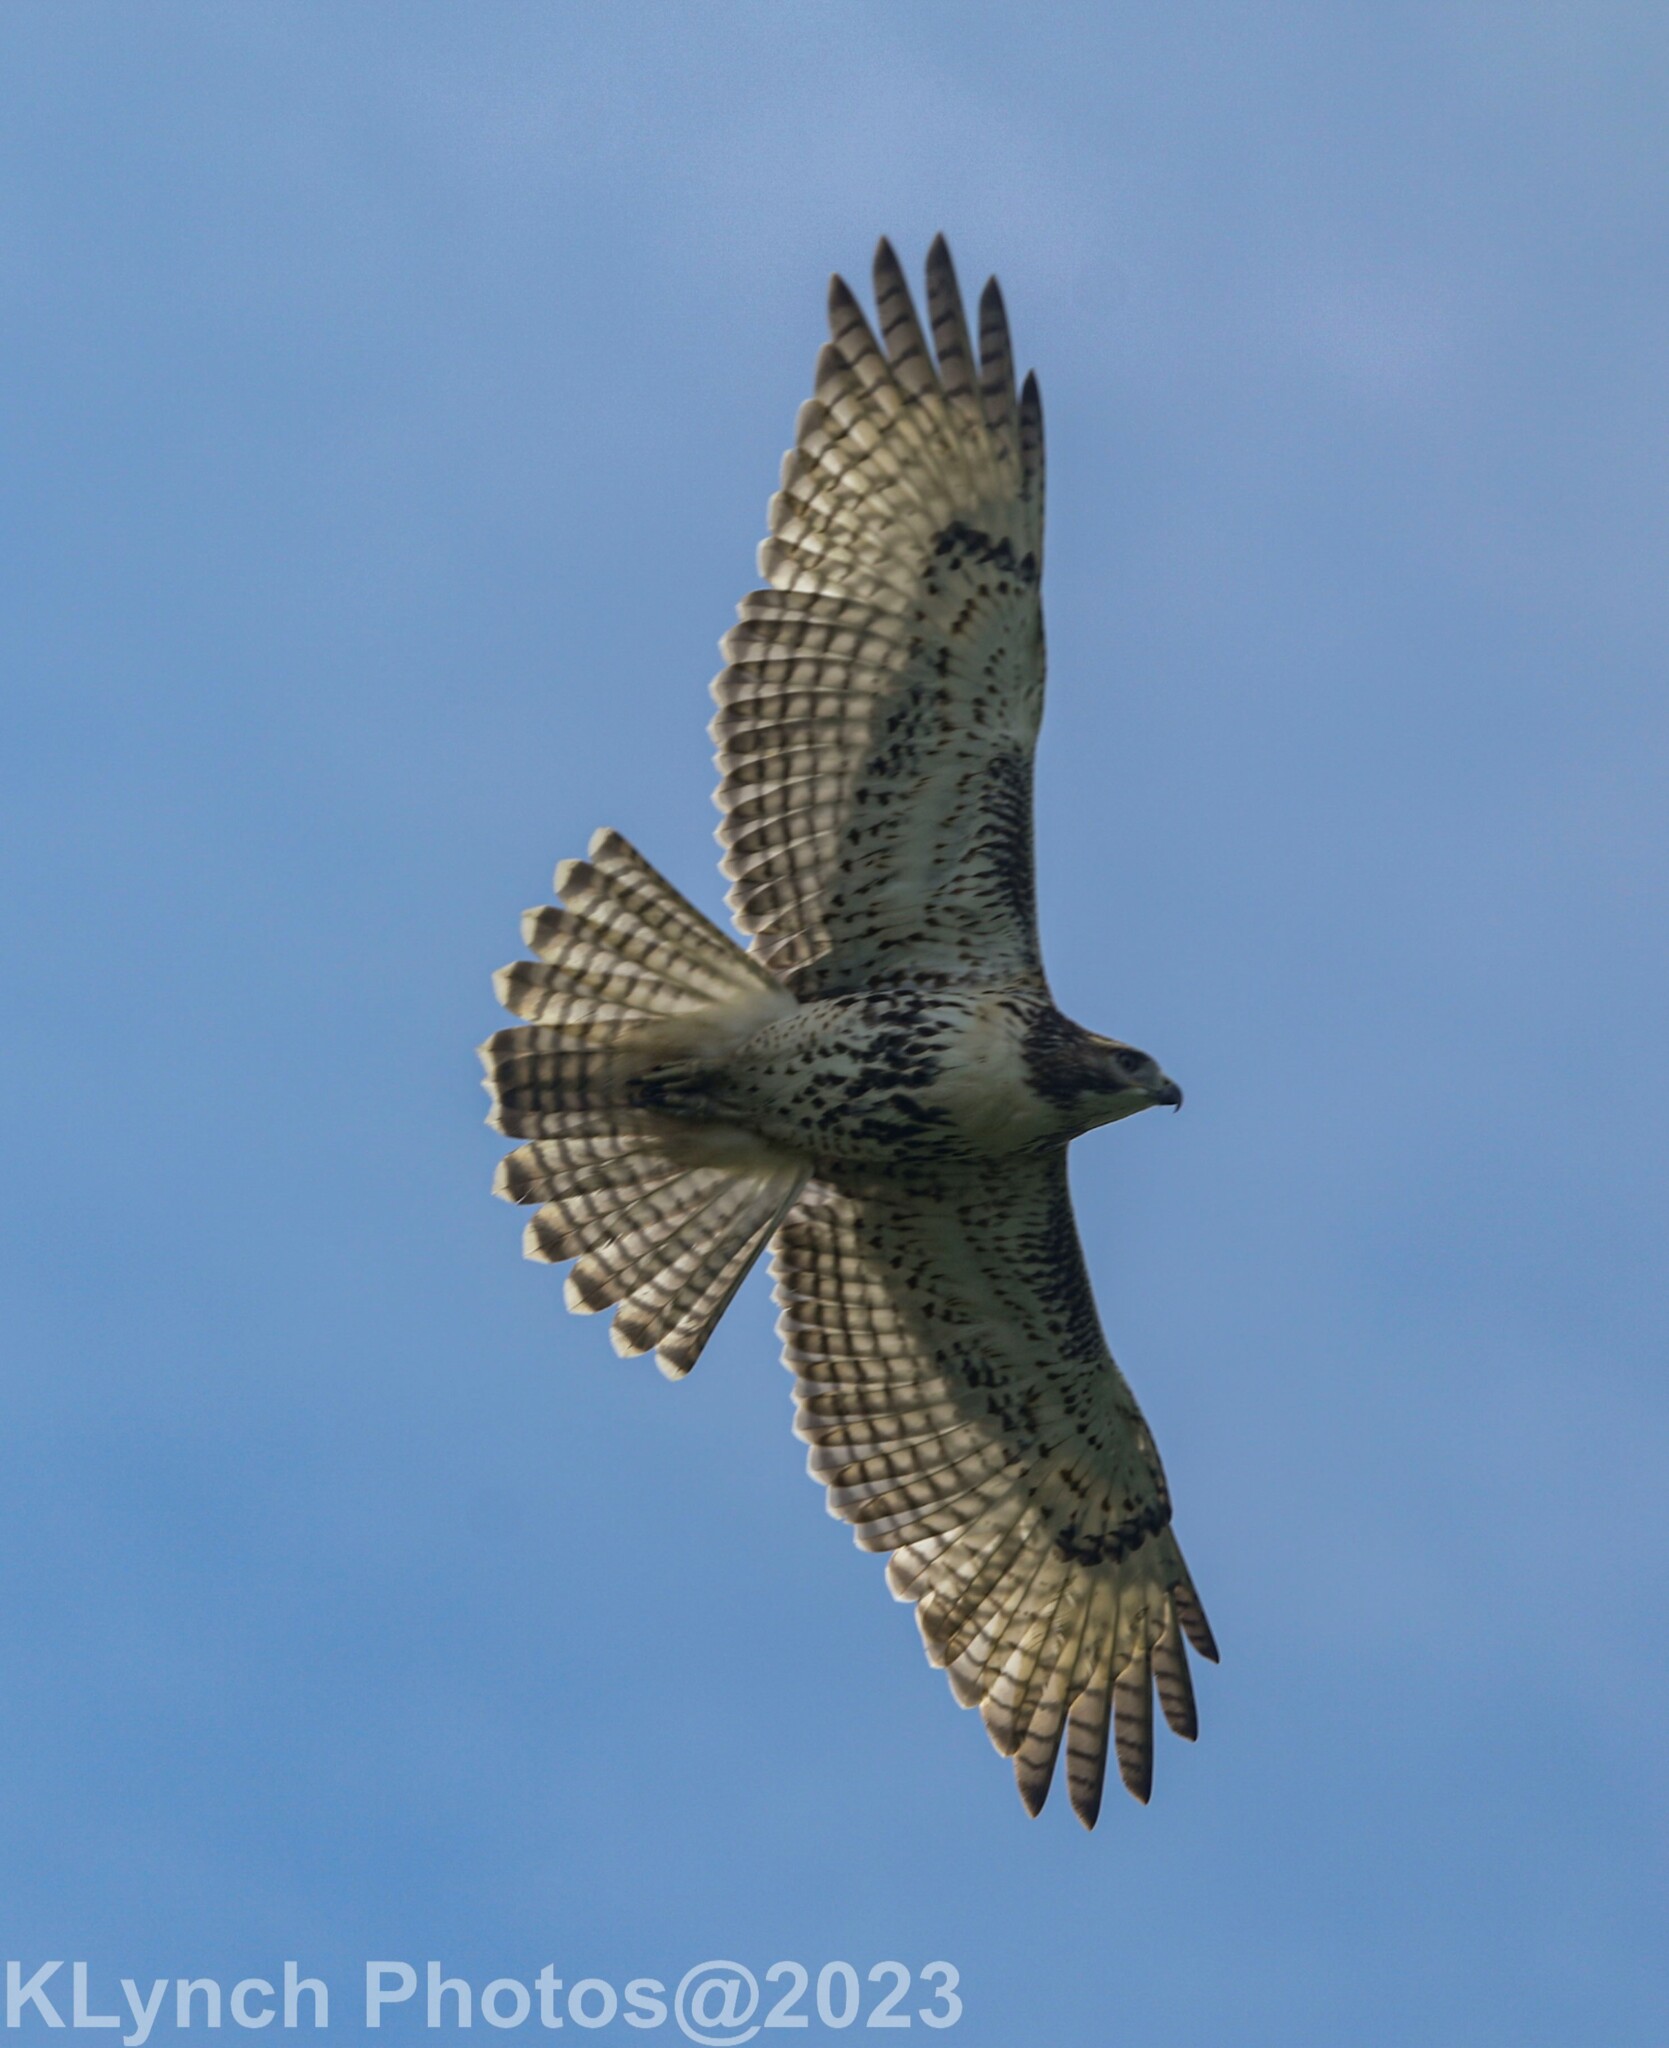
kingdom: Animalia
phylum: Chordata
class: Aves
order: Accipitriformes
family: Accipitridae
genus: Buteo
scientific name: Buteo jamaicensis
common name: Red-tailed hawk
